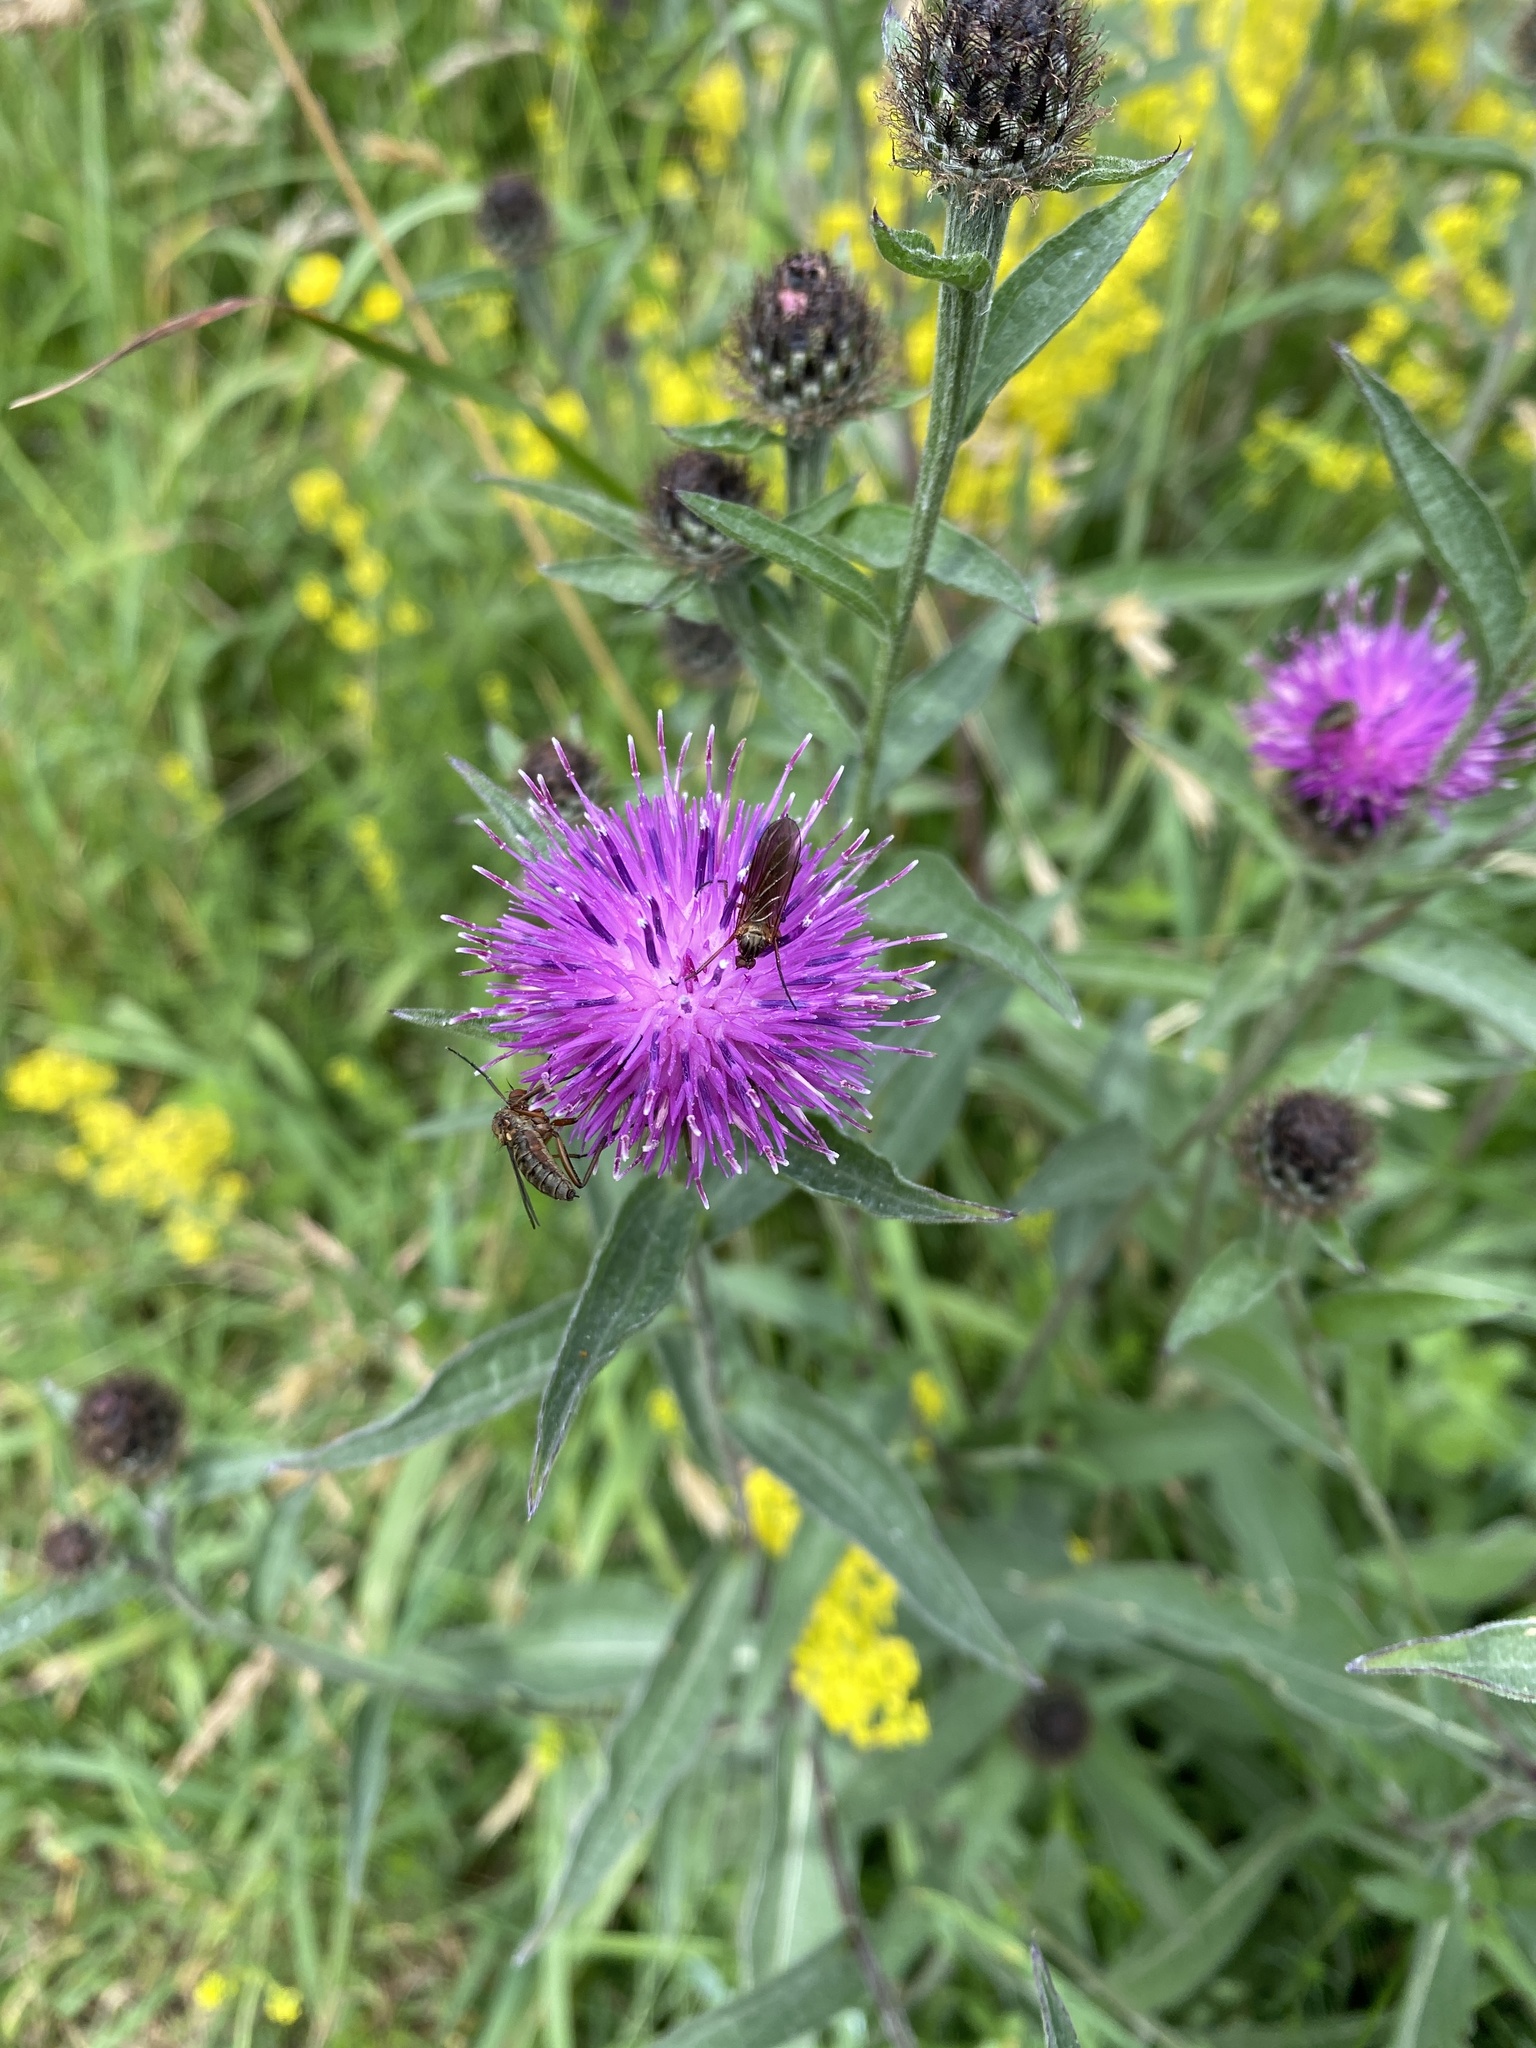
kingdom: Plantae
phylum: Tracheophyta
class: Magnoliopsida
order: Asterales
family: Asteraceae
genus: Centaurea
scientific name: Centaurea nigra
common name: Lesser knapweed
